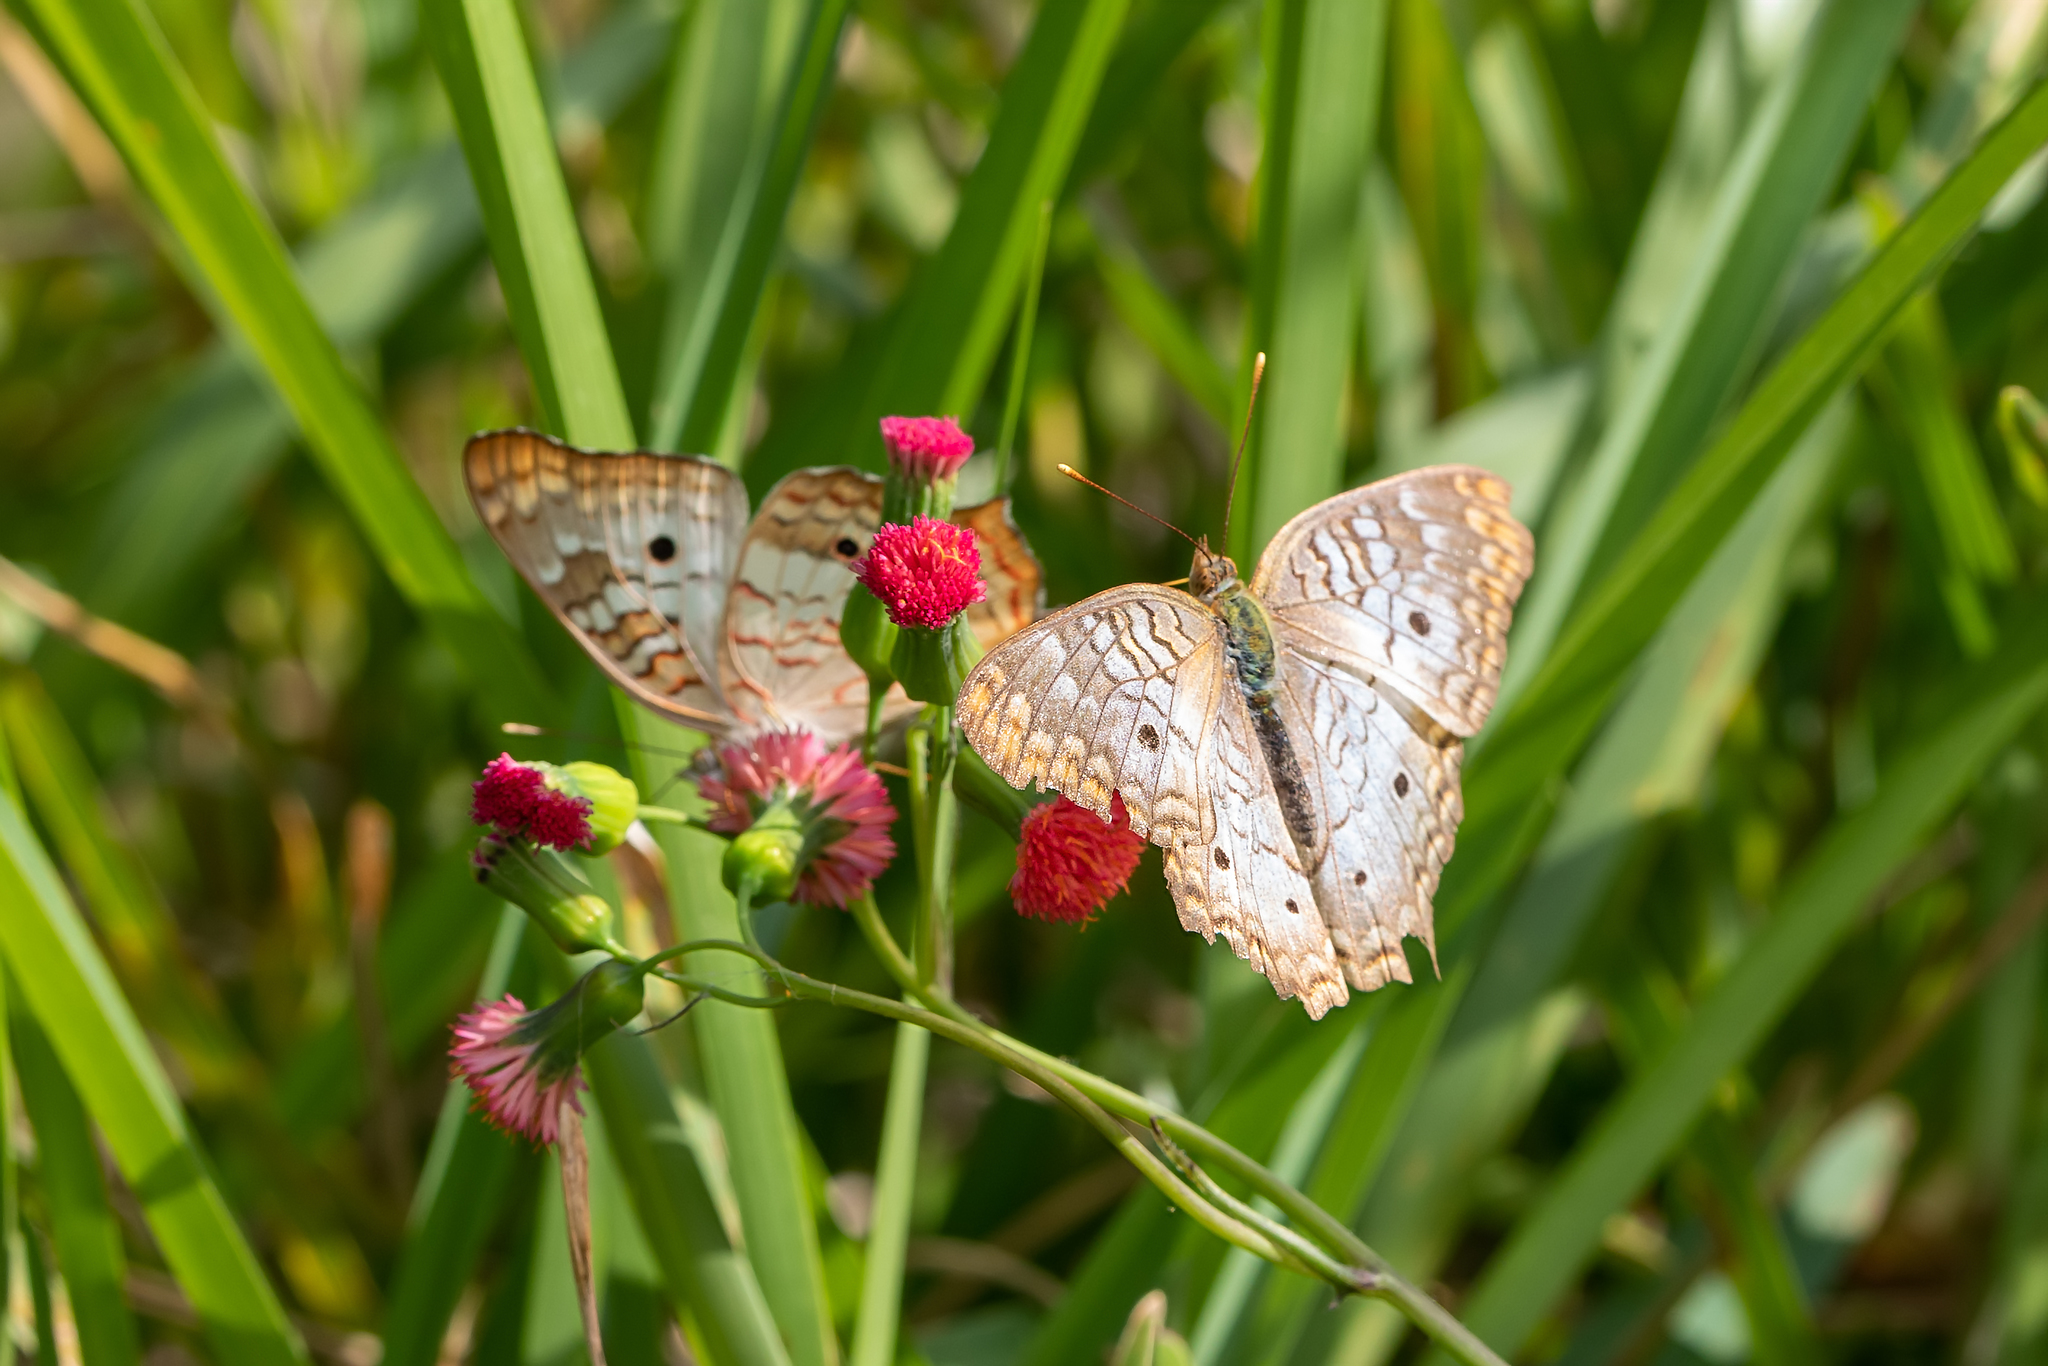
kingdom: Animalia
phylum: Arthropoda
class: Insecta
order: Lepidoptera
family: Nymphalidae
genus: Anartia
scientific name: Anartia jatrophae
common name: White peacock
